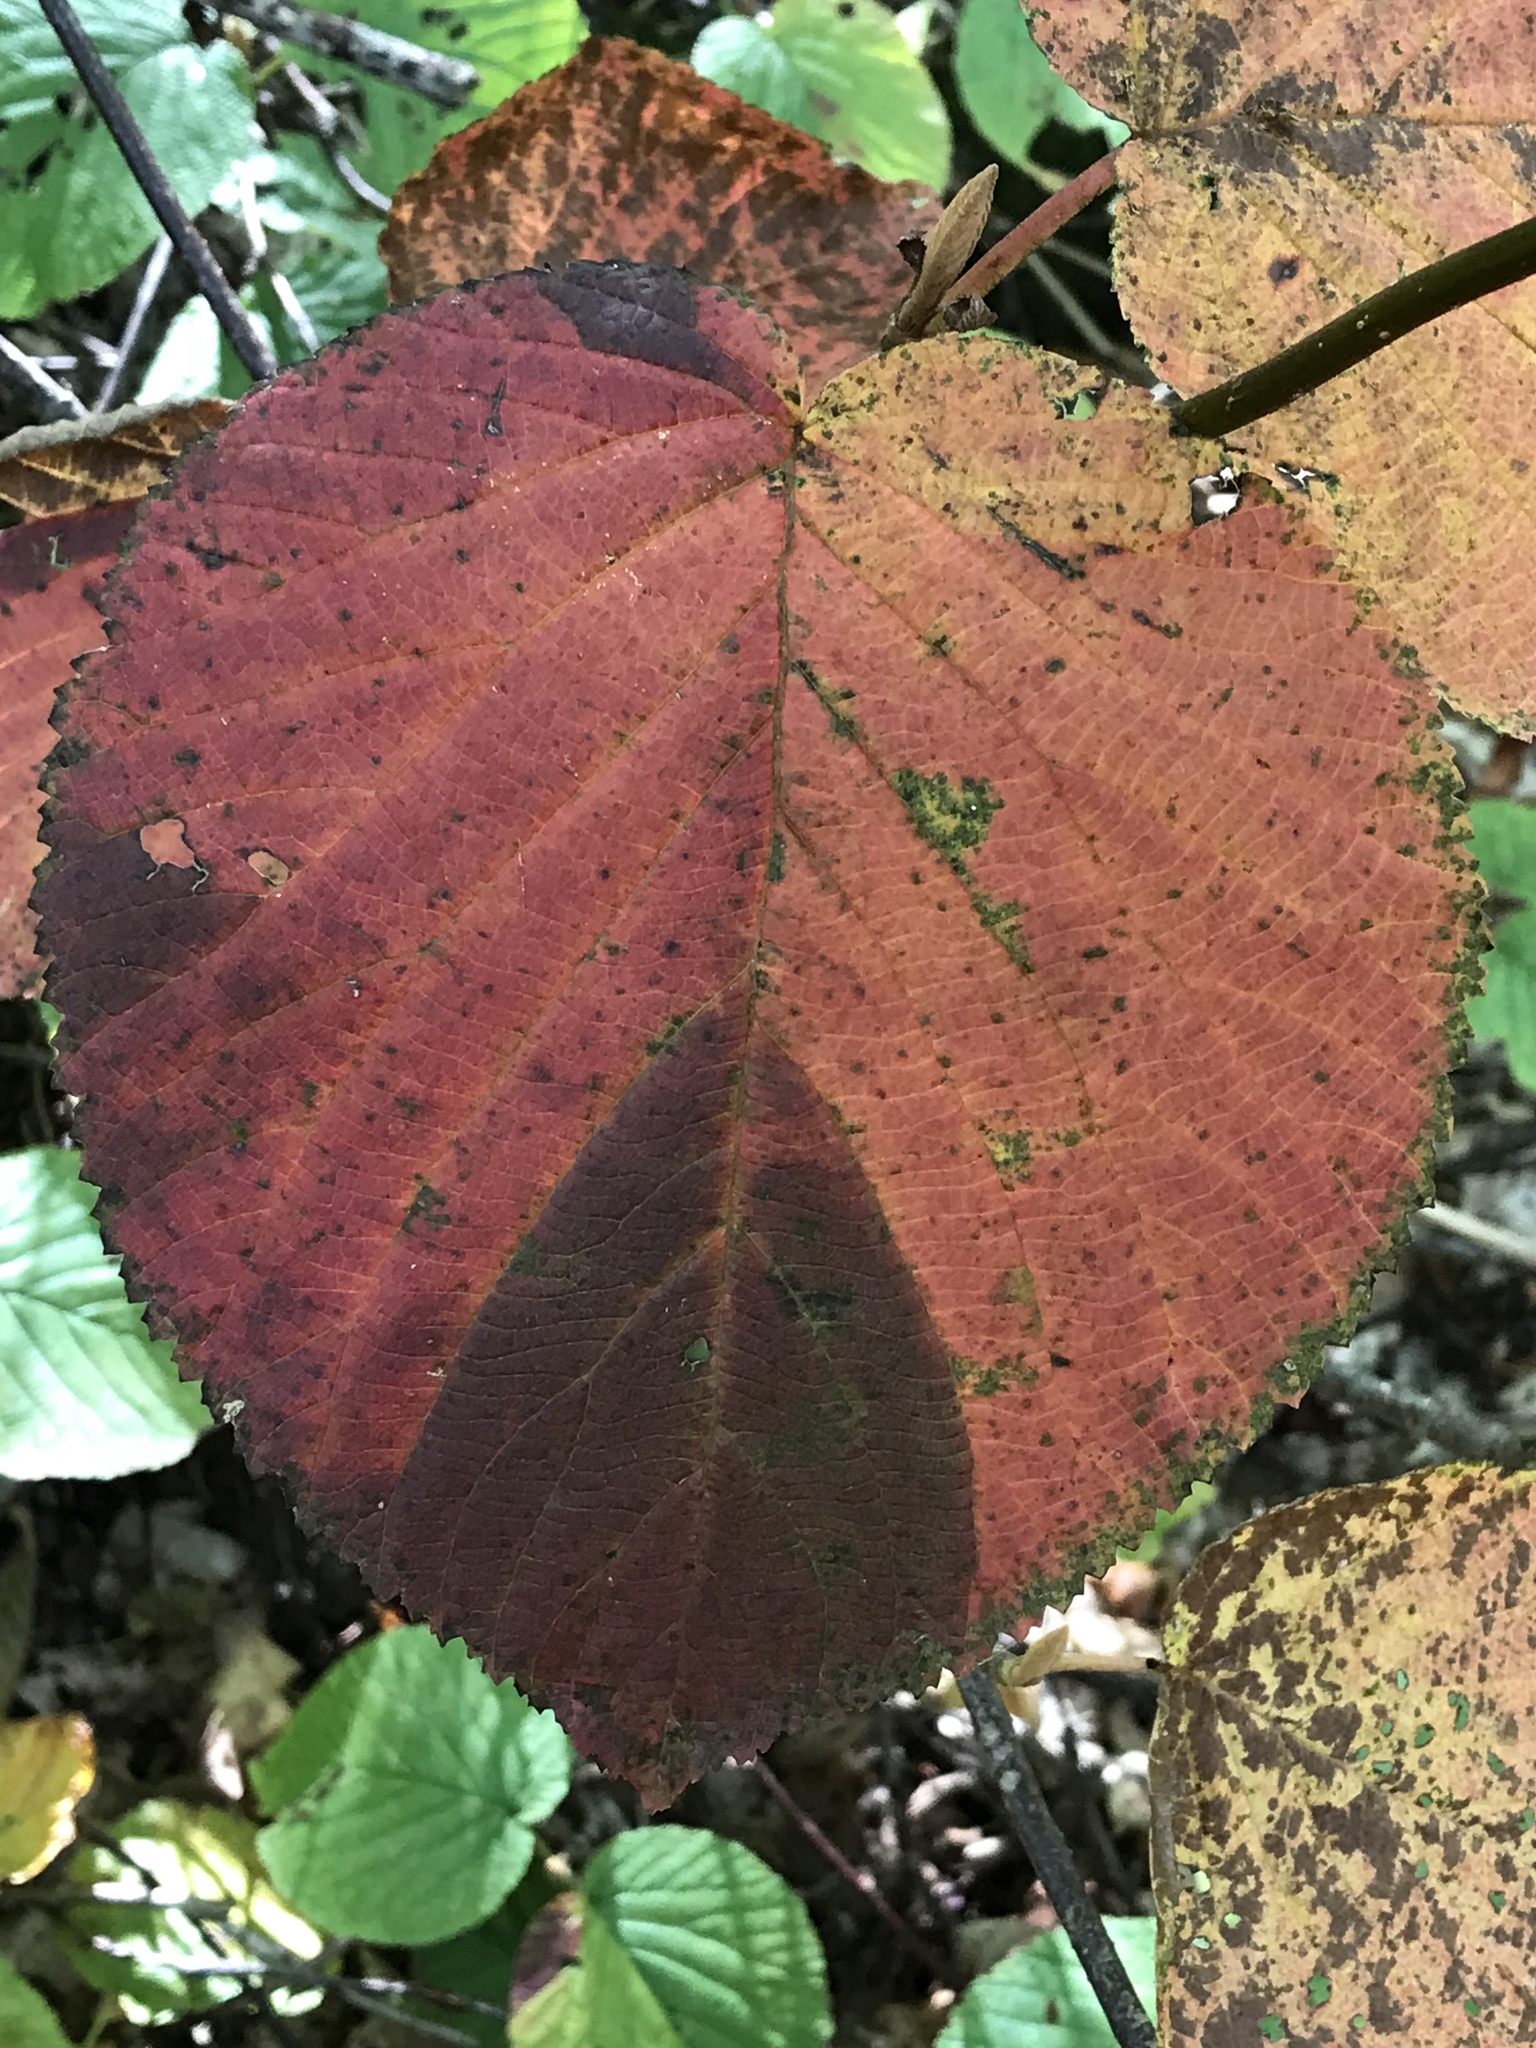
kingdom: Plantae
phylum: Tracheophyta
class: Magnoliopsida
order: Dipsacales
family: Viburnaceae
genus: Viburnum
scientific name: Viburnum lantanoides
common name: Hobblebush
